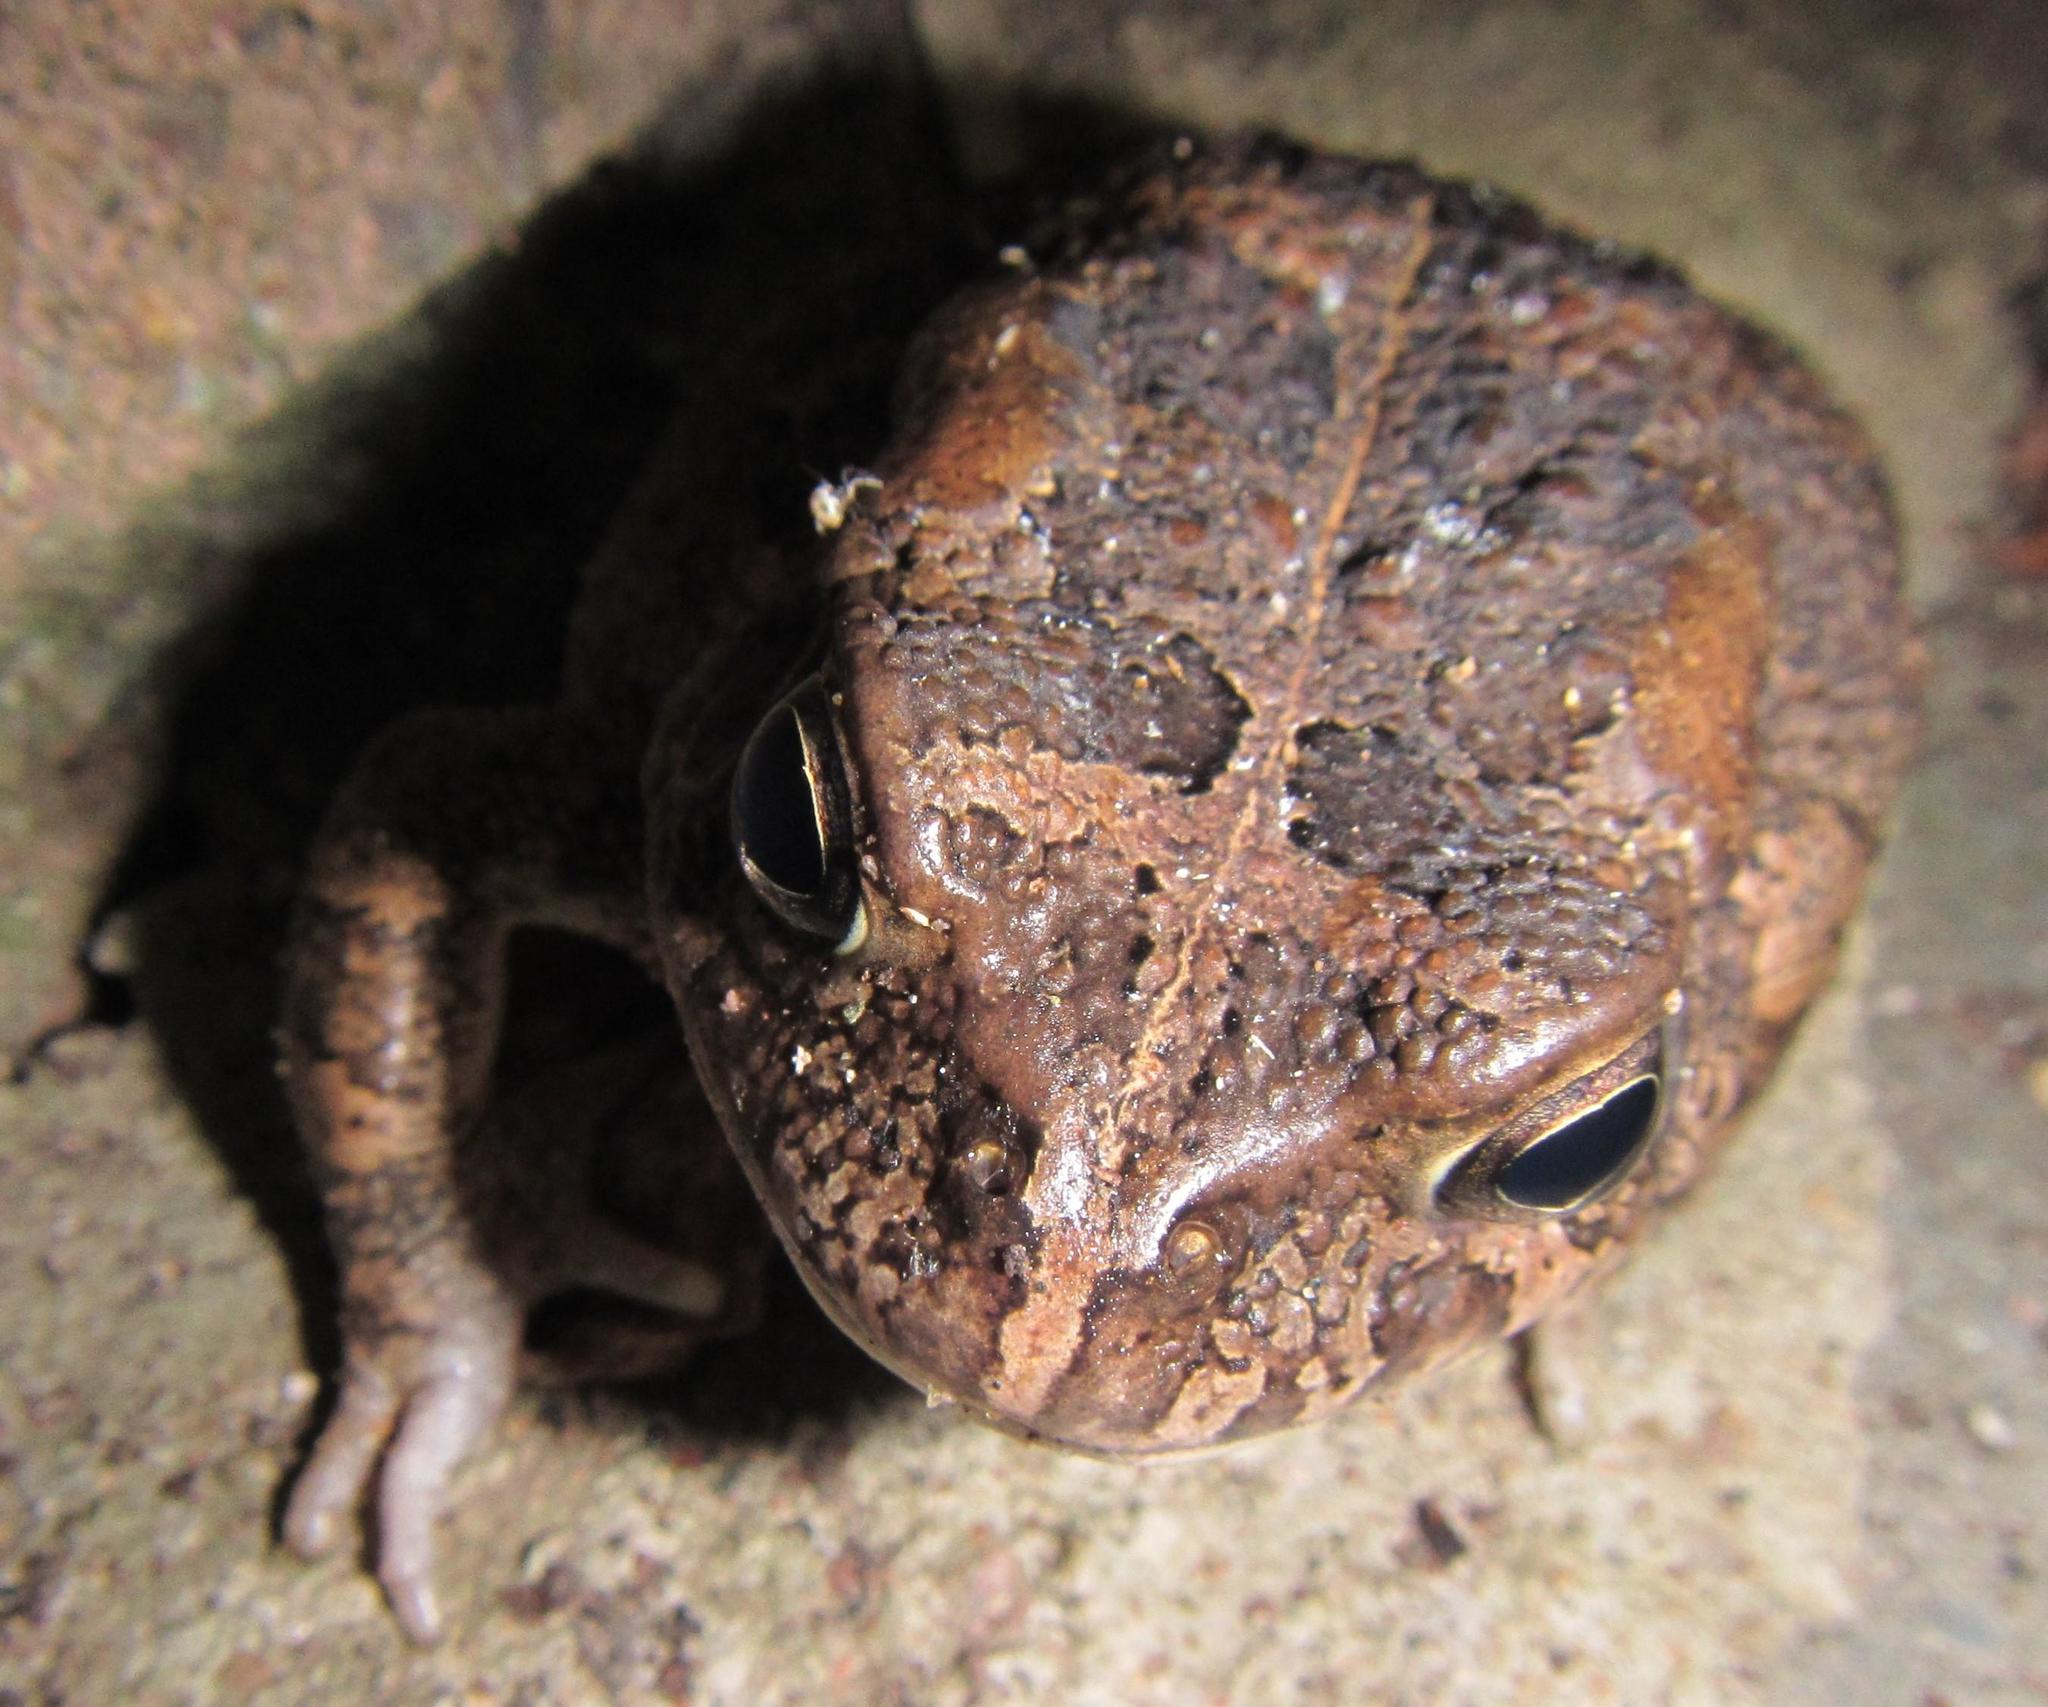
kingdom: Animalia
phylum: Chordata
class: Amphibia
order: Anura
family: Bufonidae
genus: Sclerophrys
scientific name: Sclerophrys gutturalis
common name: African common toad
